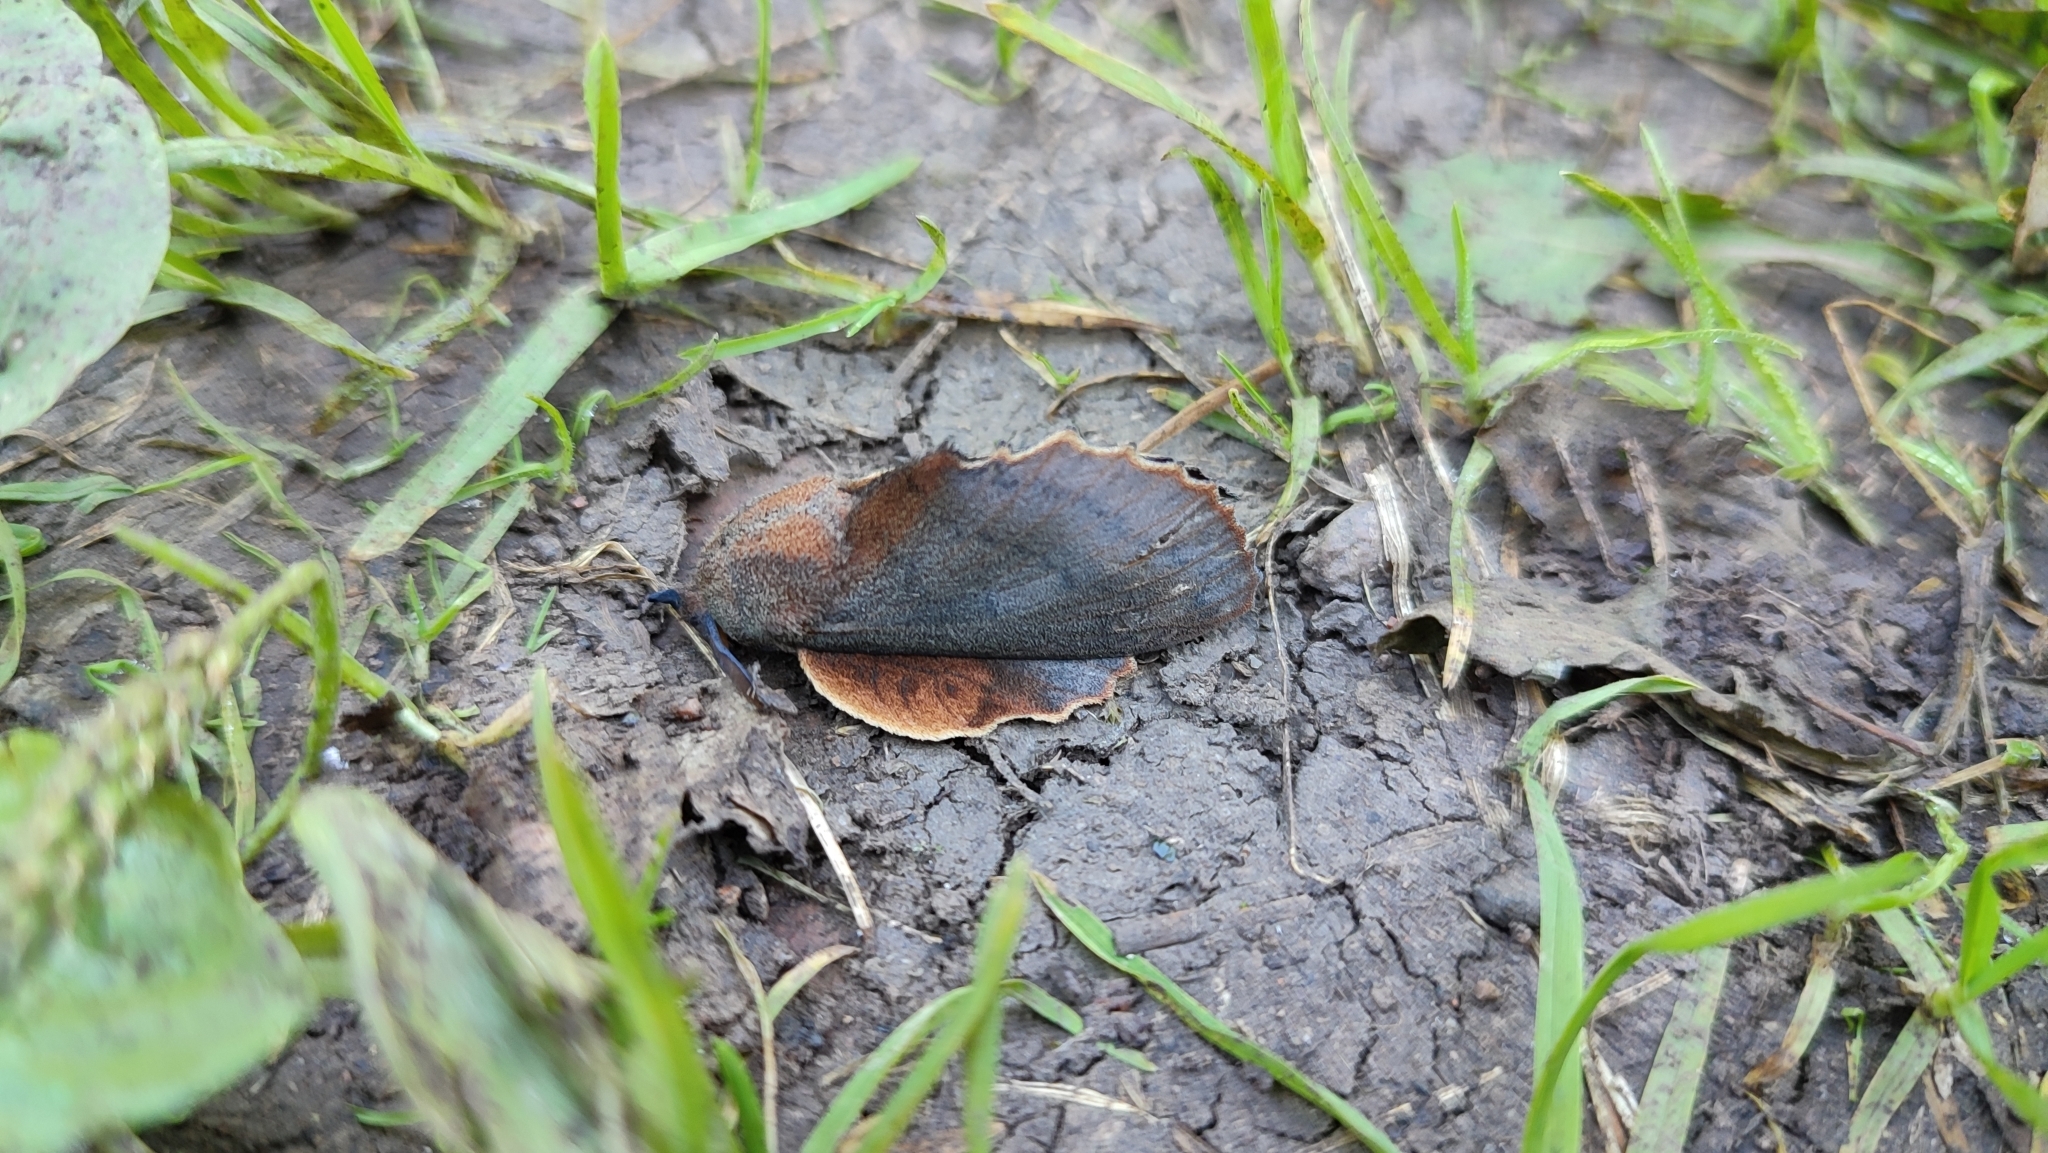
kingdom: Animalia
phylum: Arthropoda
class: Insecta
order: Lepidoptera
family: Lasiocampidae
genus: Gastropacha
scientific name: Gastropacha quercifolia
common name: Lappet
